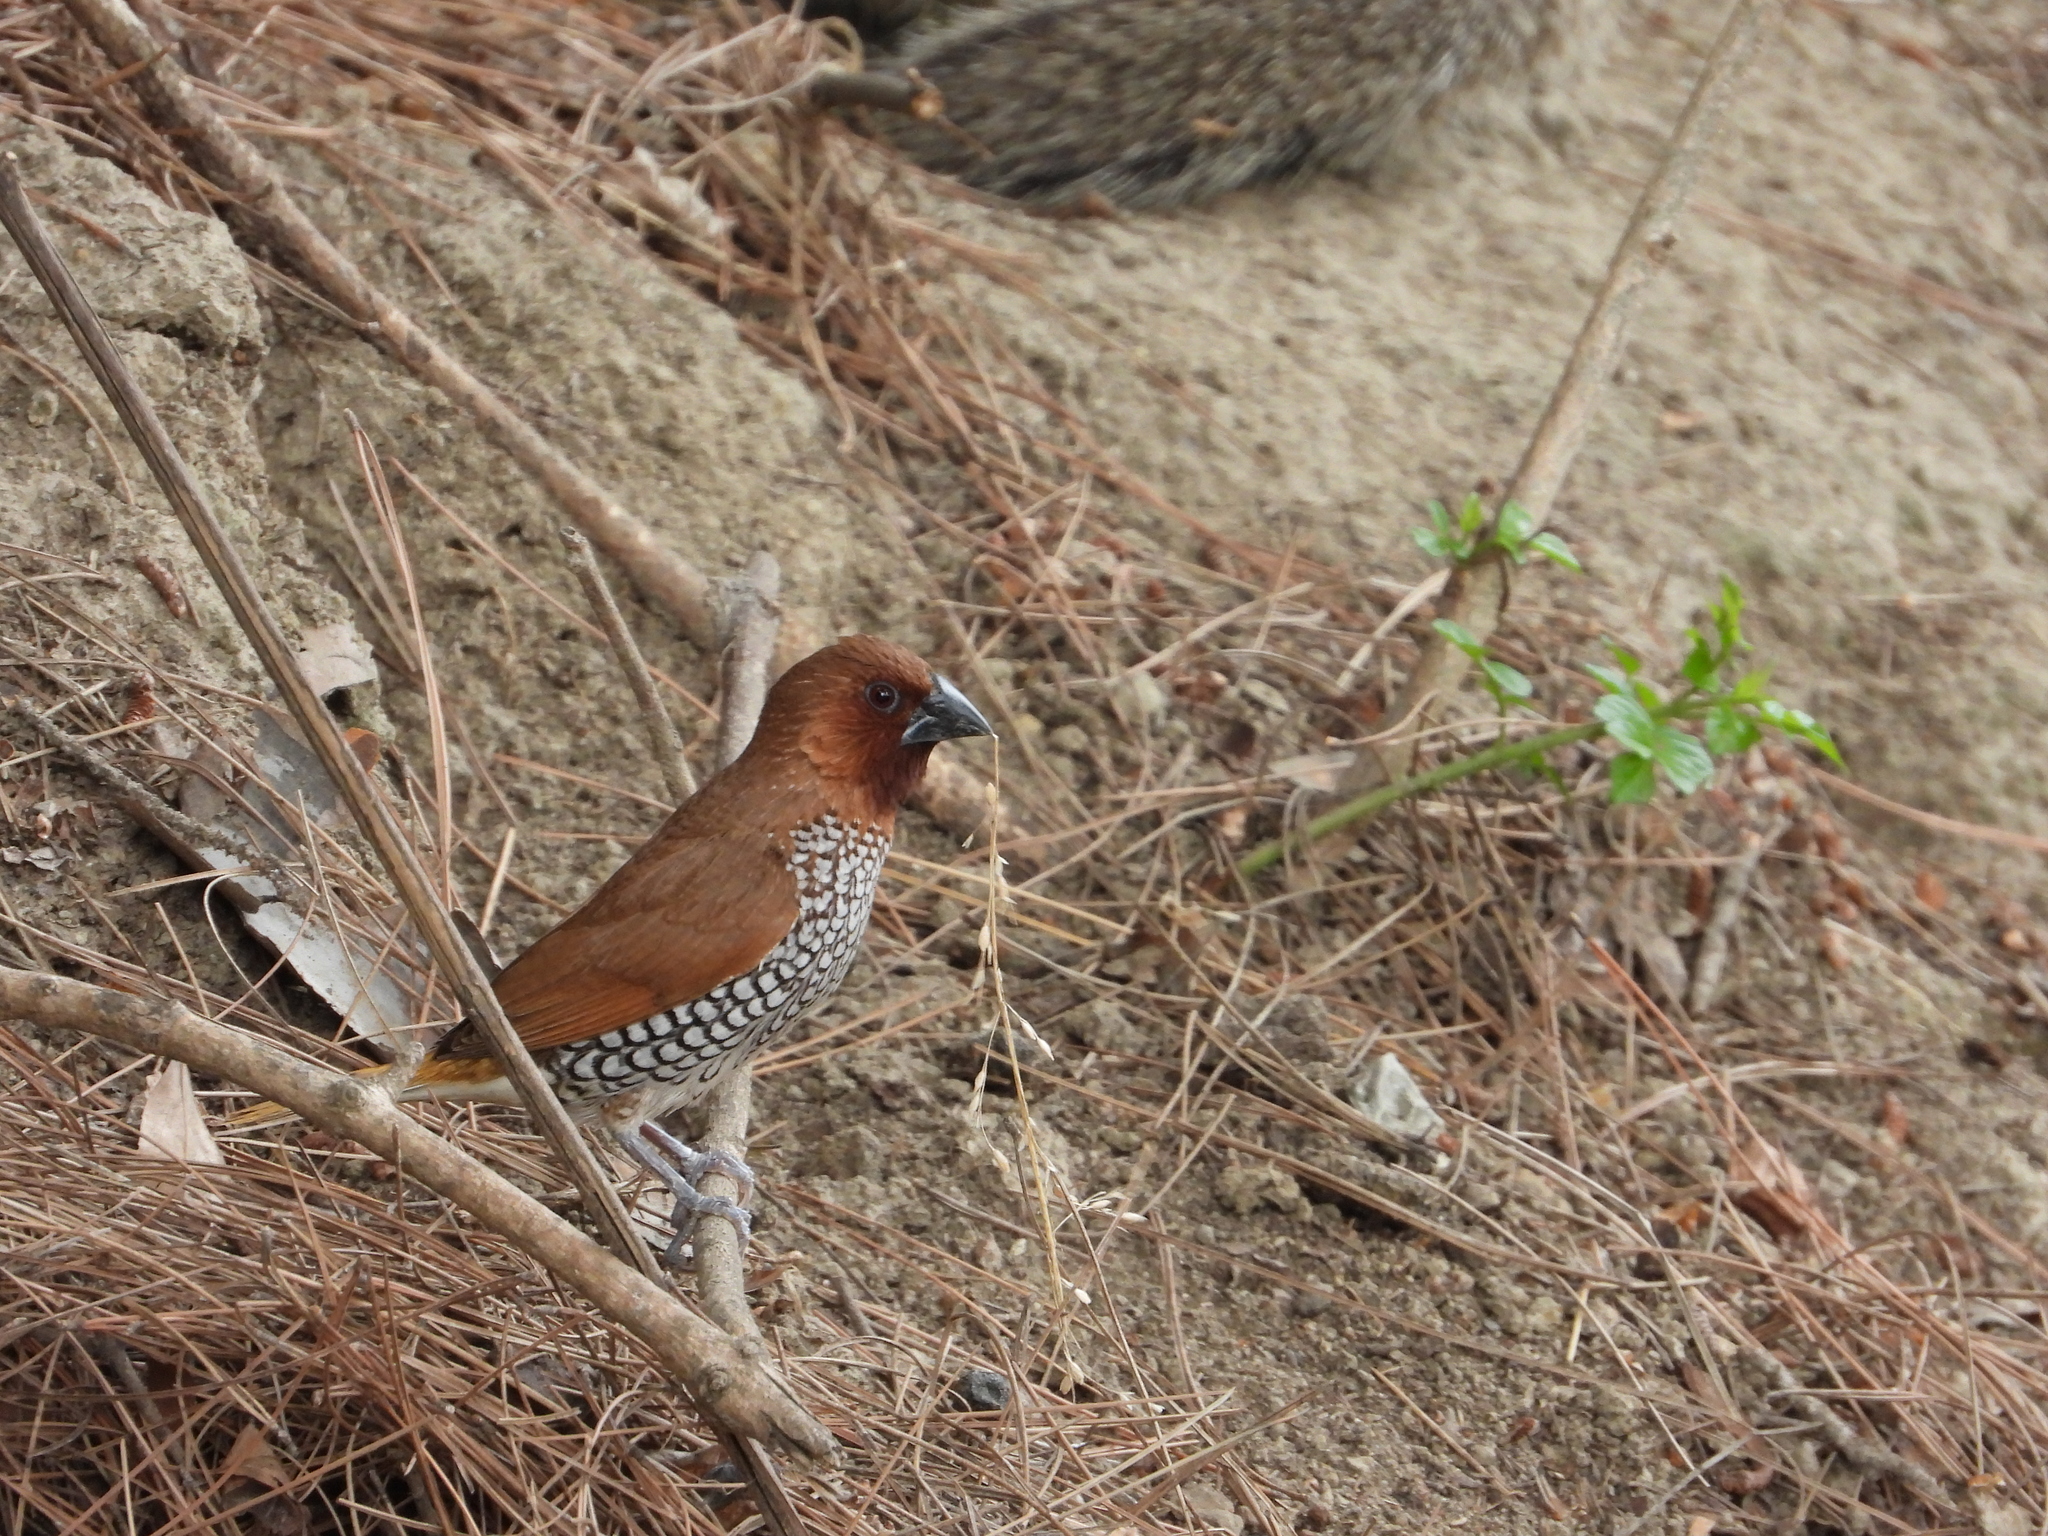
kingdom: Animalia
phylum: Chordata
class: Aves
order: Passeriformes
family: Estrildidae
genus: Lonchura
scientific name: Lonchura punctulata
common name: Scaly-breasted munia
